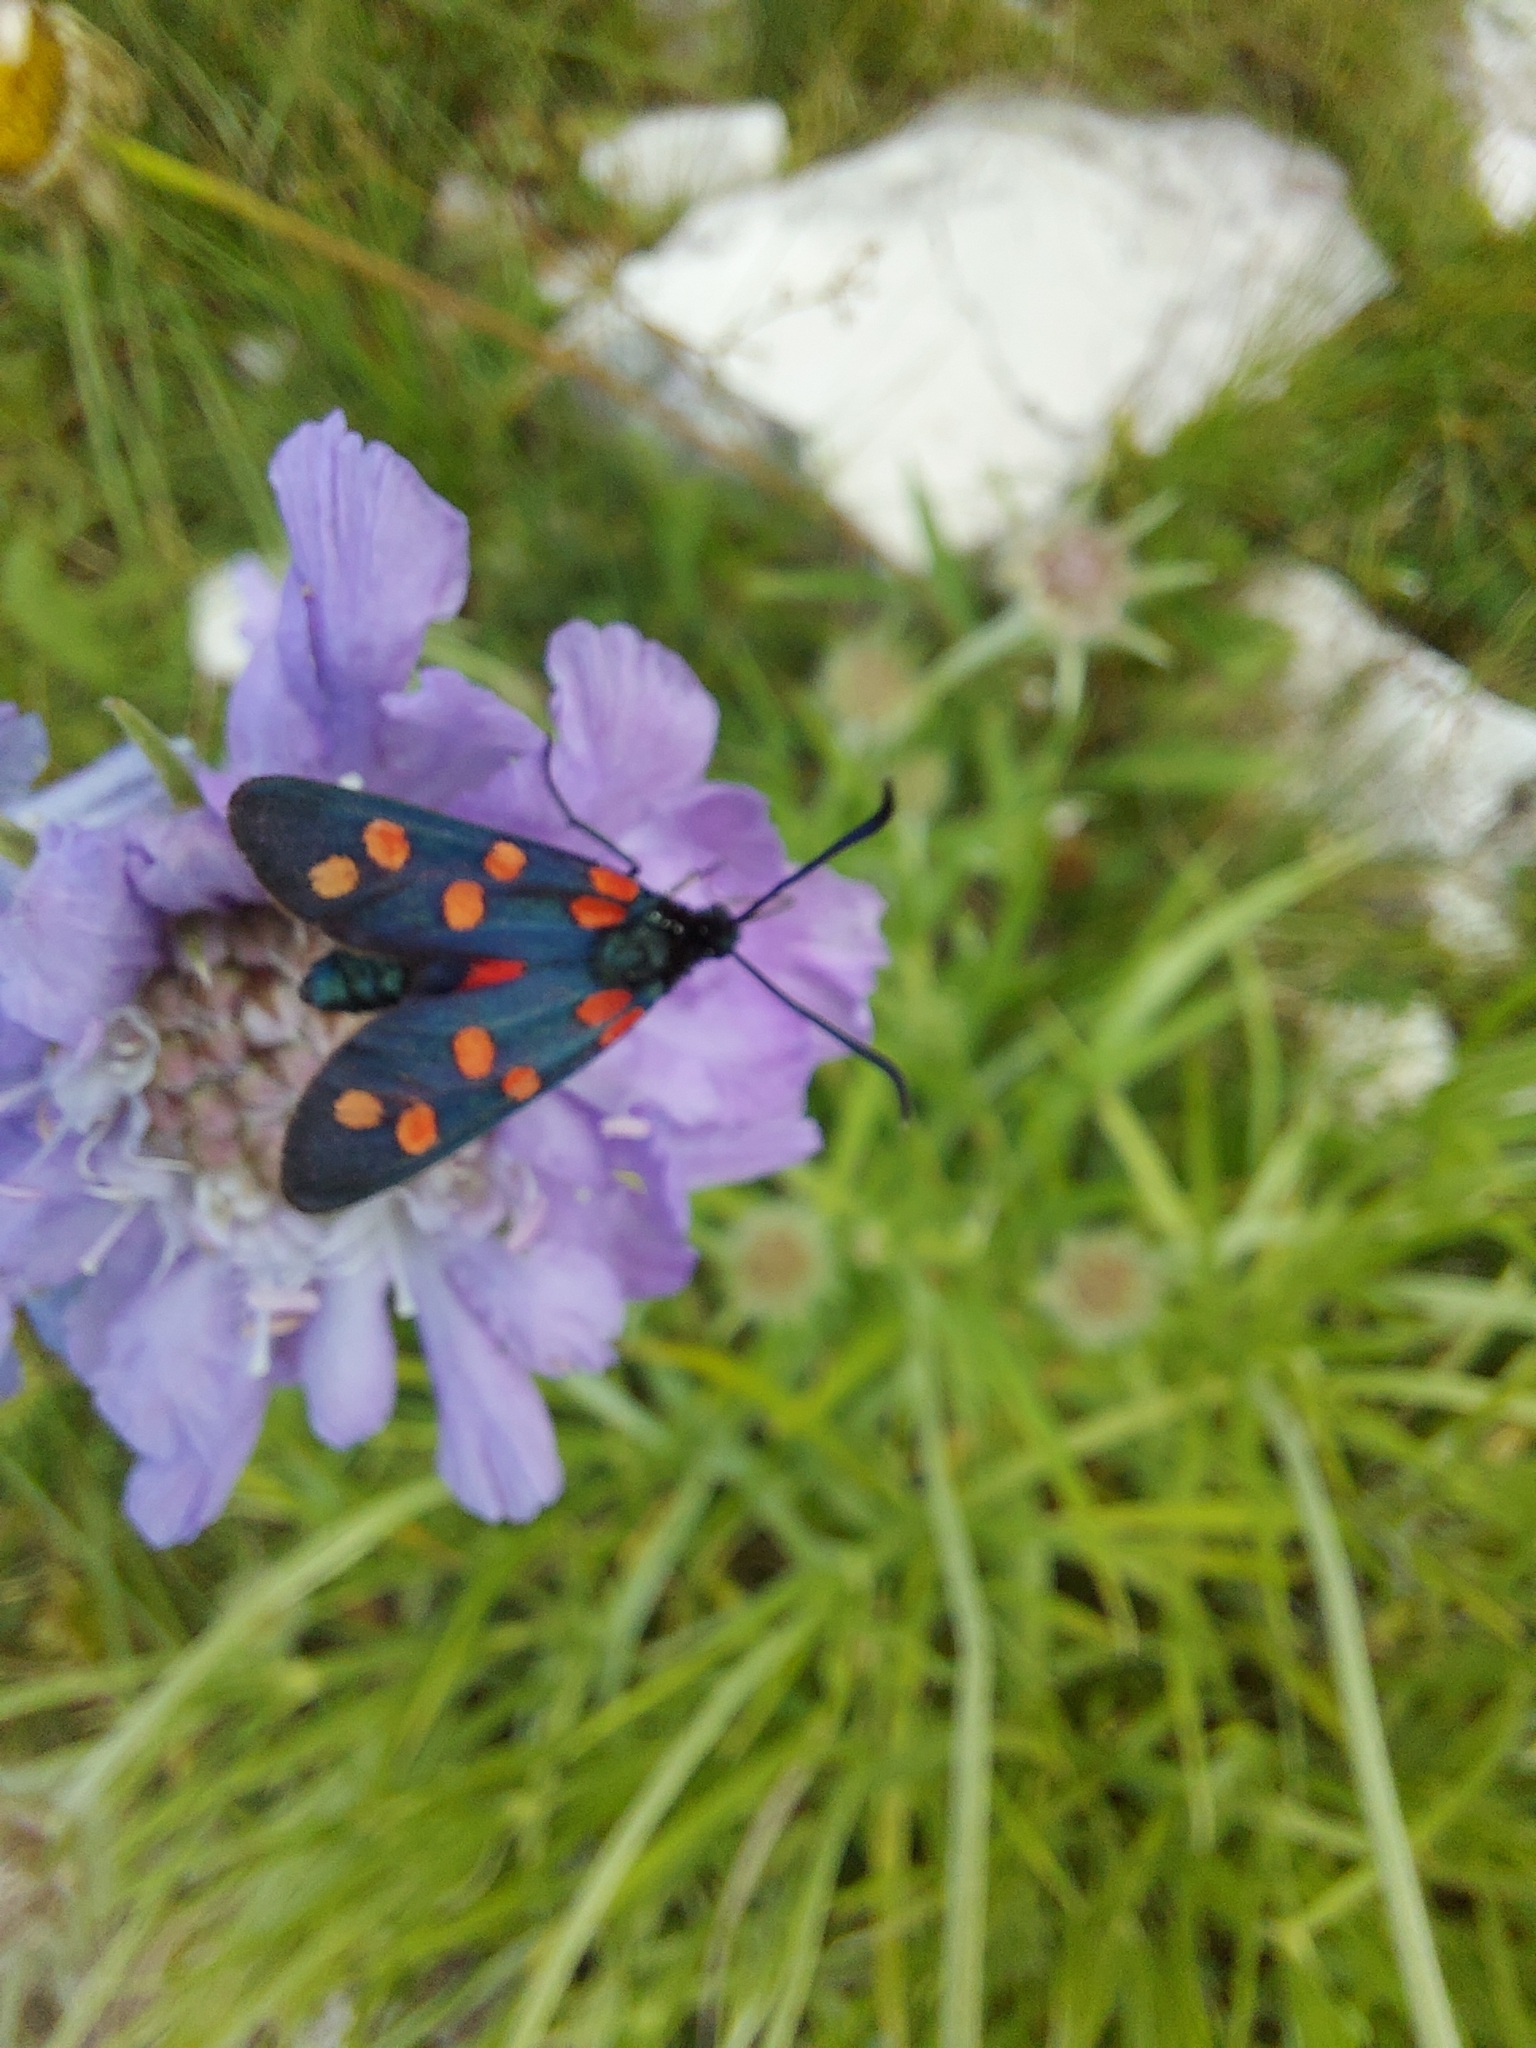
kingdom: Animalia
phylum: Arthropoda
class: Insecta
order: Lepidoptera
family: Zygaenidae
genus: Zygaena
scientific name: Zygaena transalpina
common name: Southern six spot burnet
